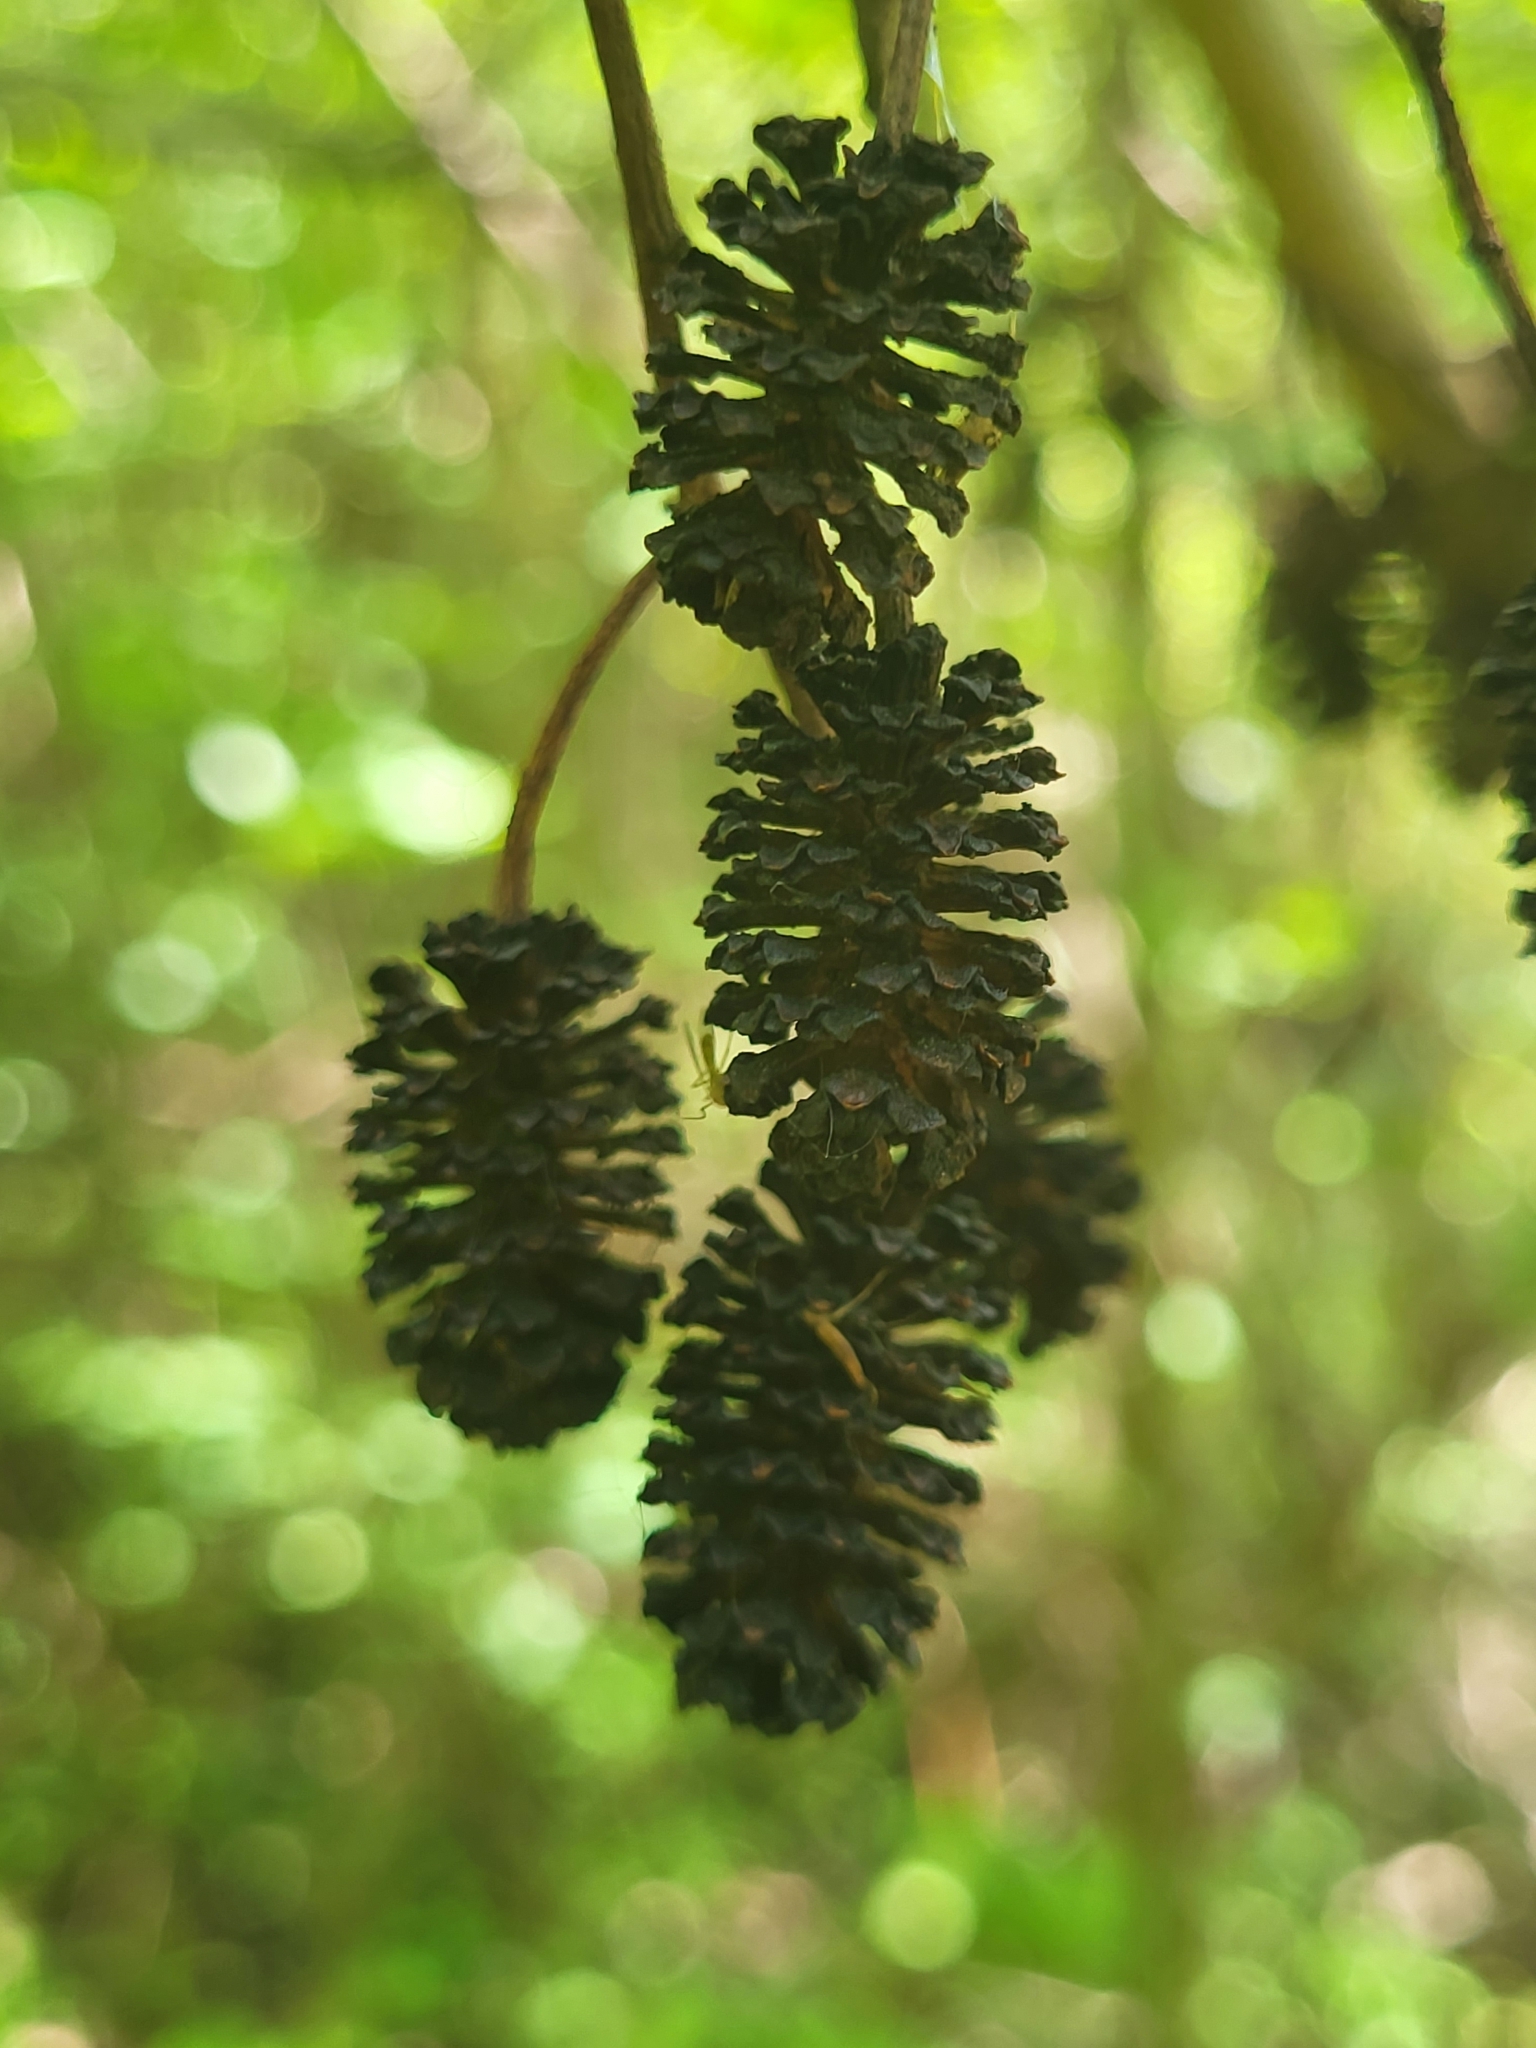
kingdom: Plantae
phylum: Tracheophyta
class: Magnoliopsida
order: Fagales
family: Betulaceae
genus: Alnus
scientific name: Alnus glutinosa
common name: Black alder
